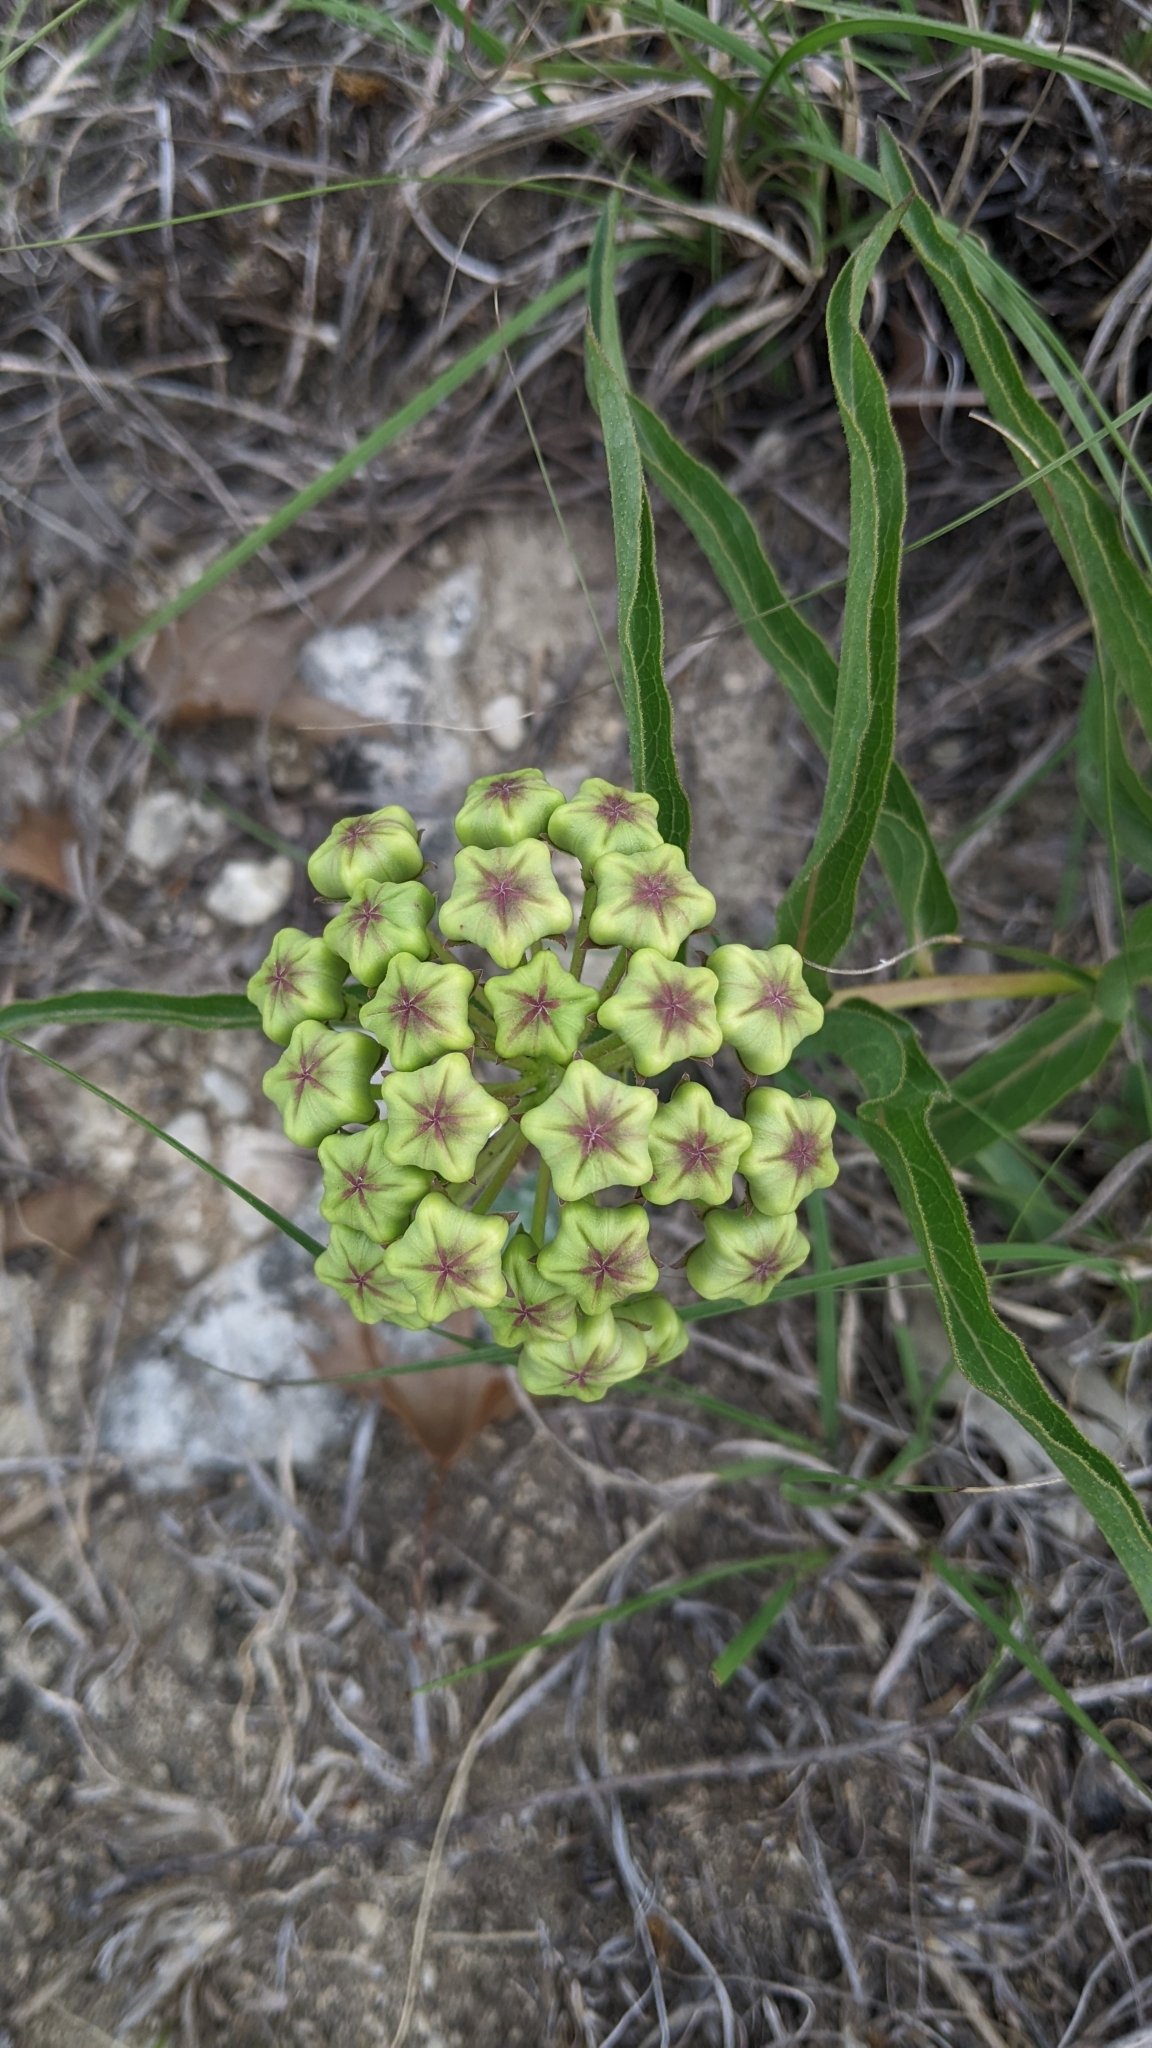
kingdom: Plantae
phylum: Tracheophyta
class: Magnoliopsida
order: Gentianales
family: Apocynaceae
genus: Asclepias
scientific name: Asclepias asperula
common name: Antelope horns
